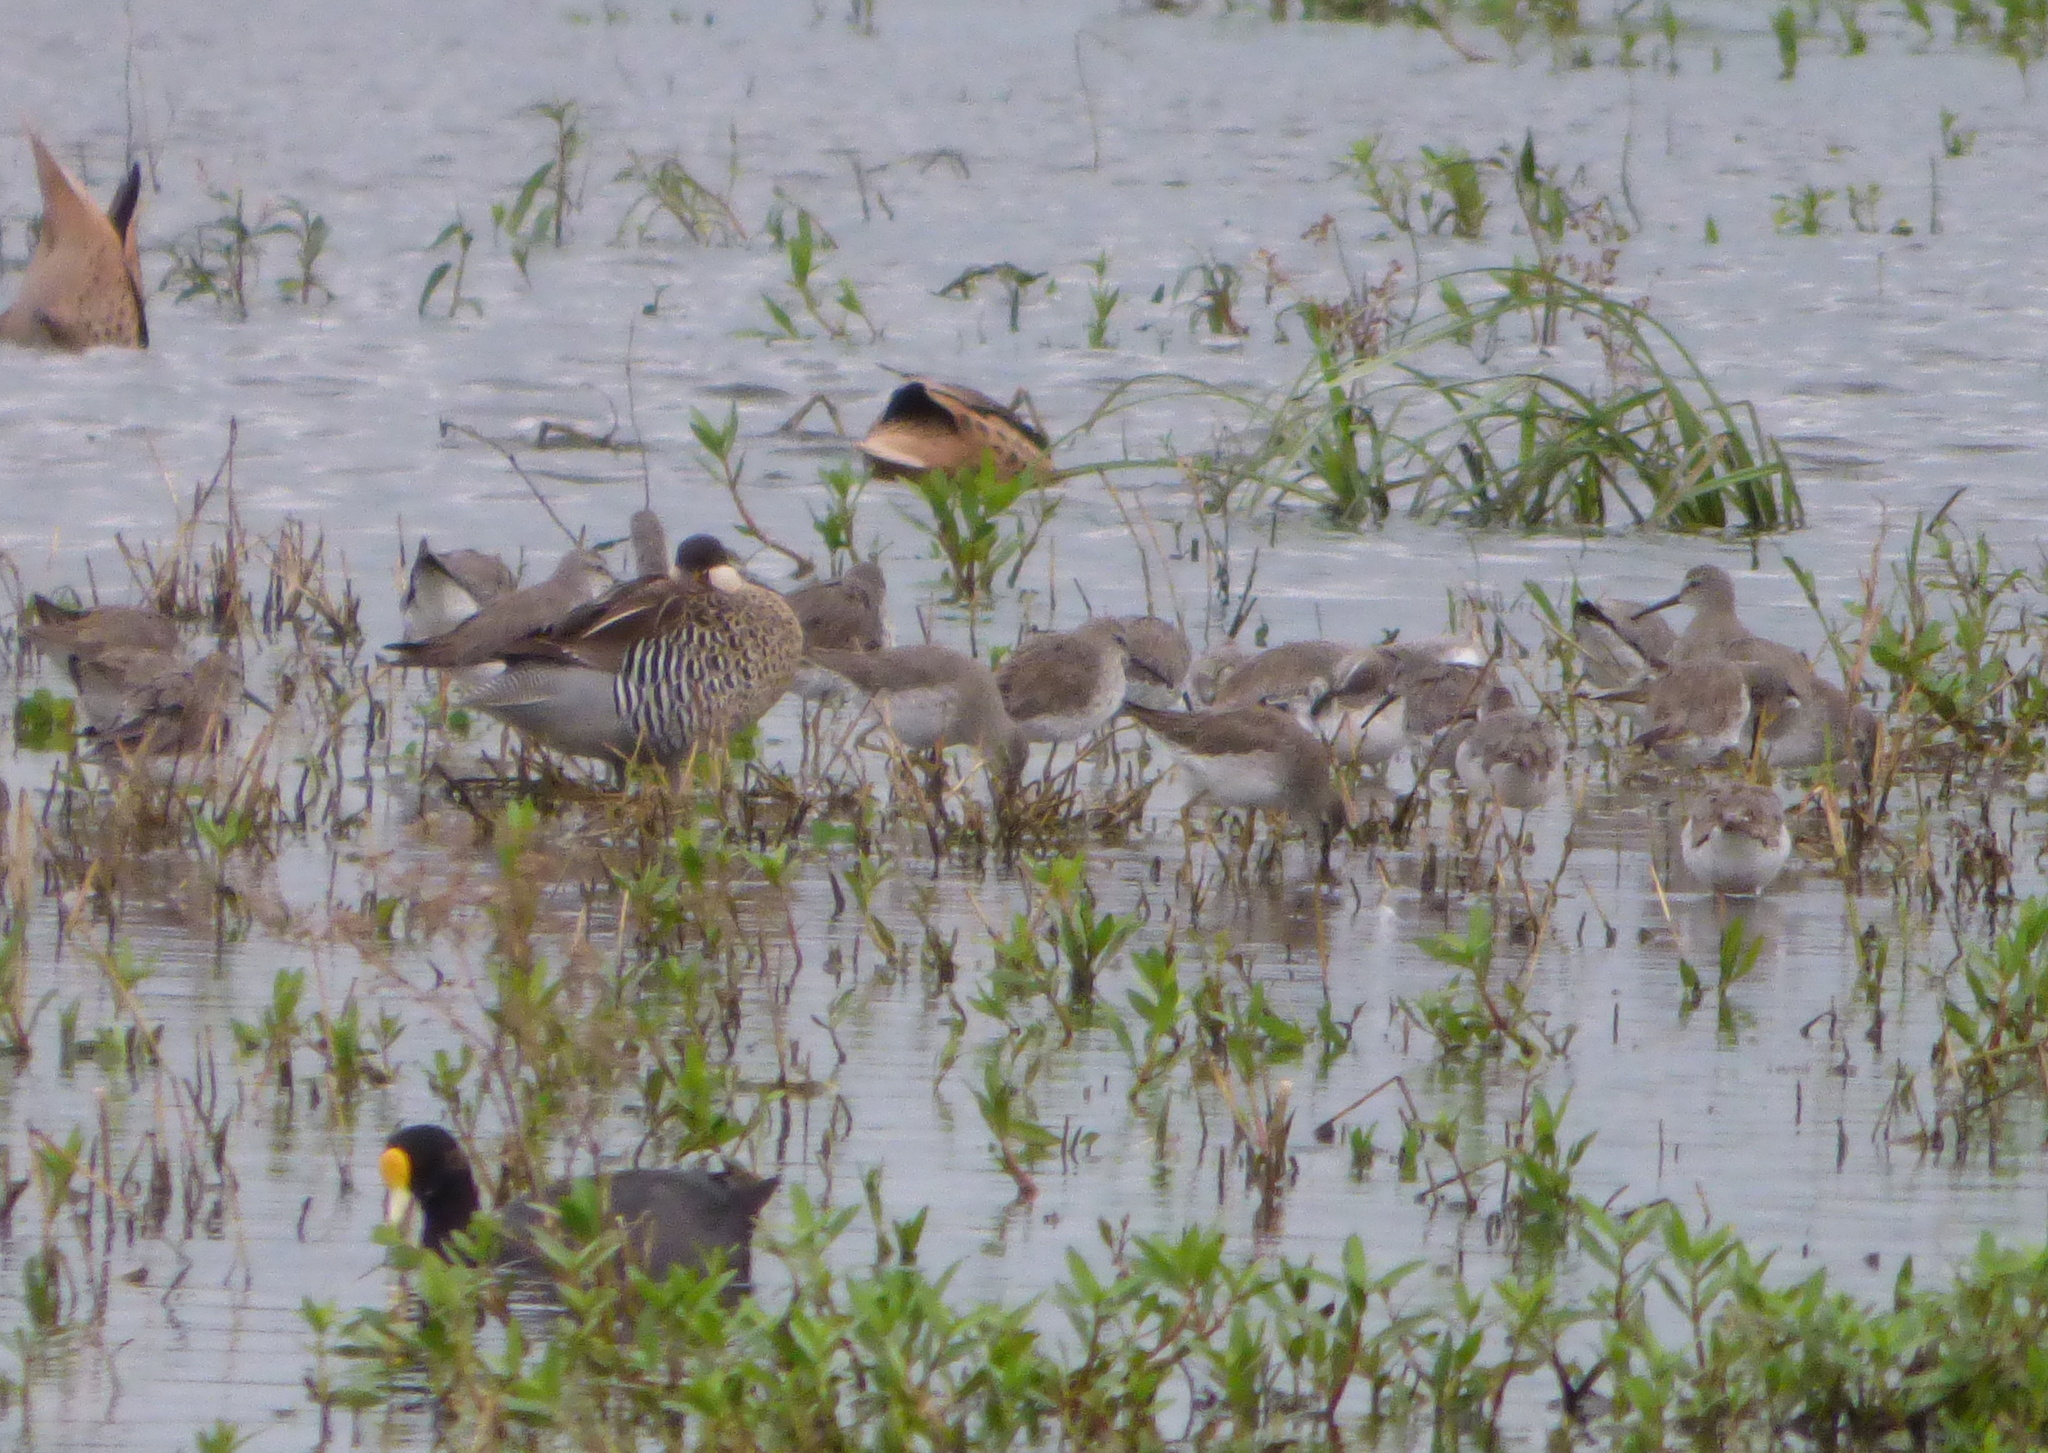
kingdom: Animalia
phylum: Chordata
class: Aves
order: Charadriiformes
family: Scolopacidae
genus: Calidris
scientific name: Calidris himantopus
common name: Stilt sandpiper
